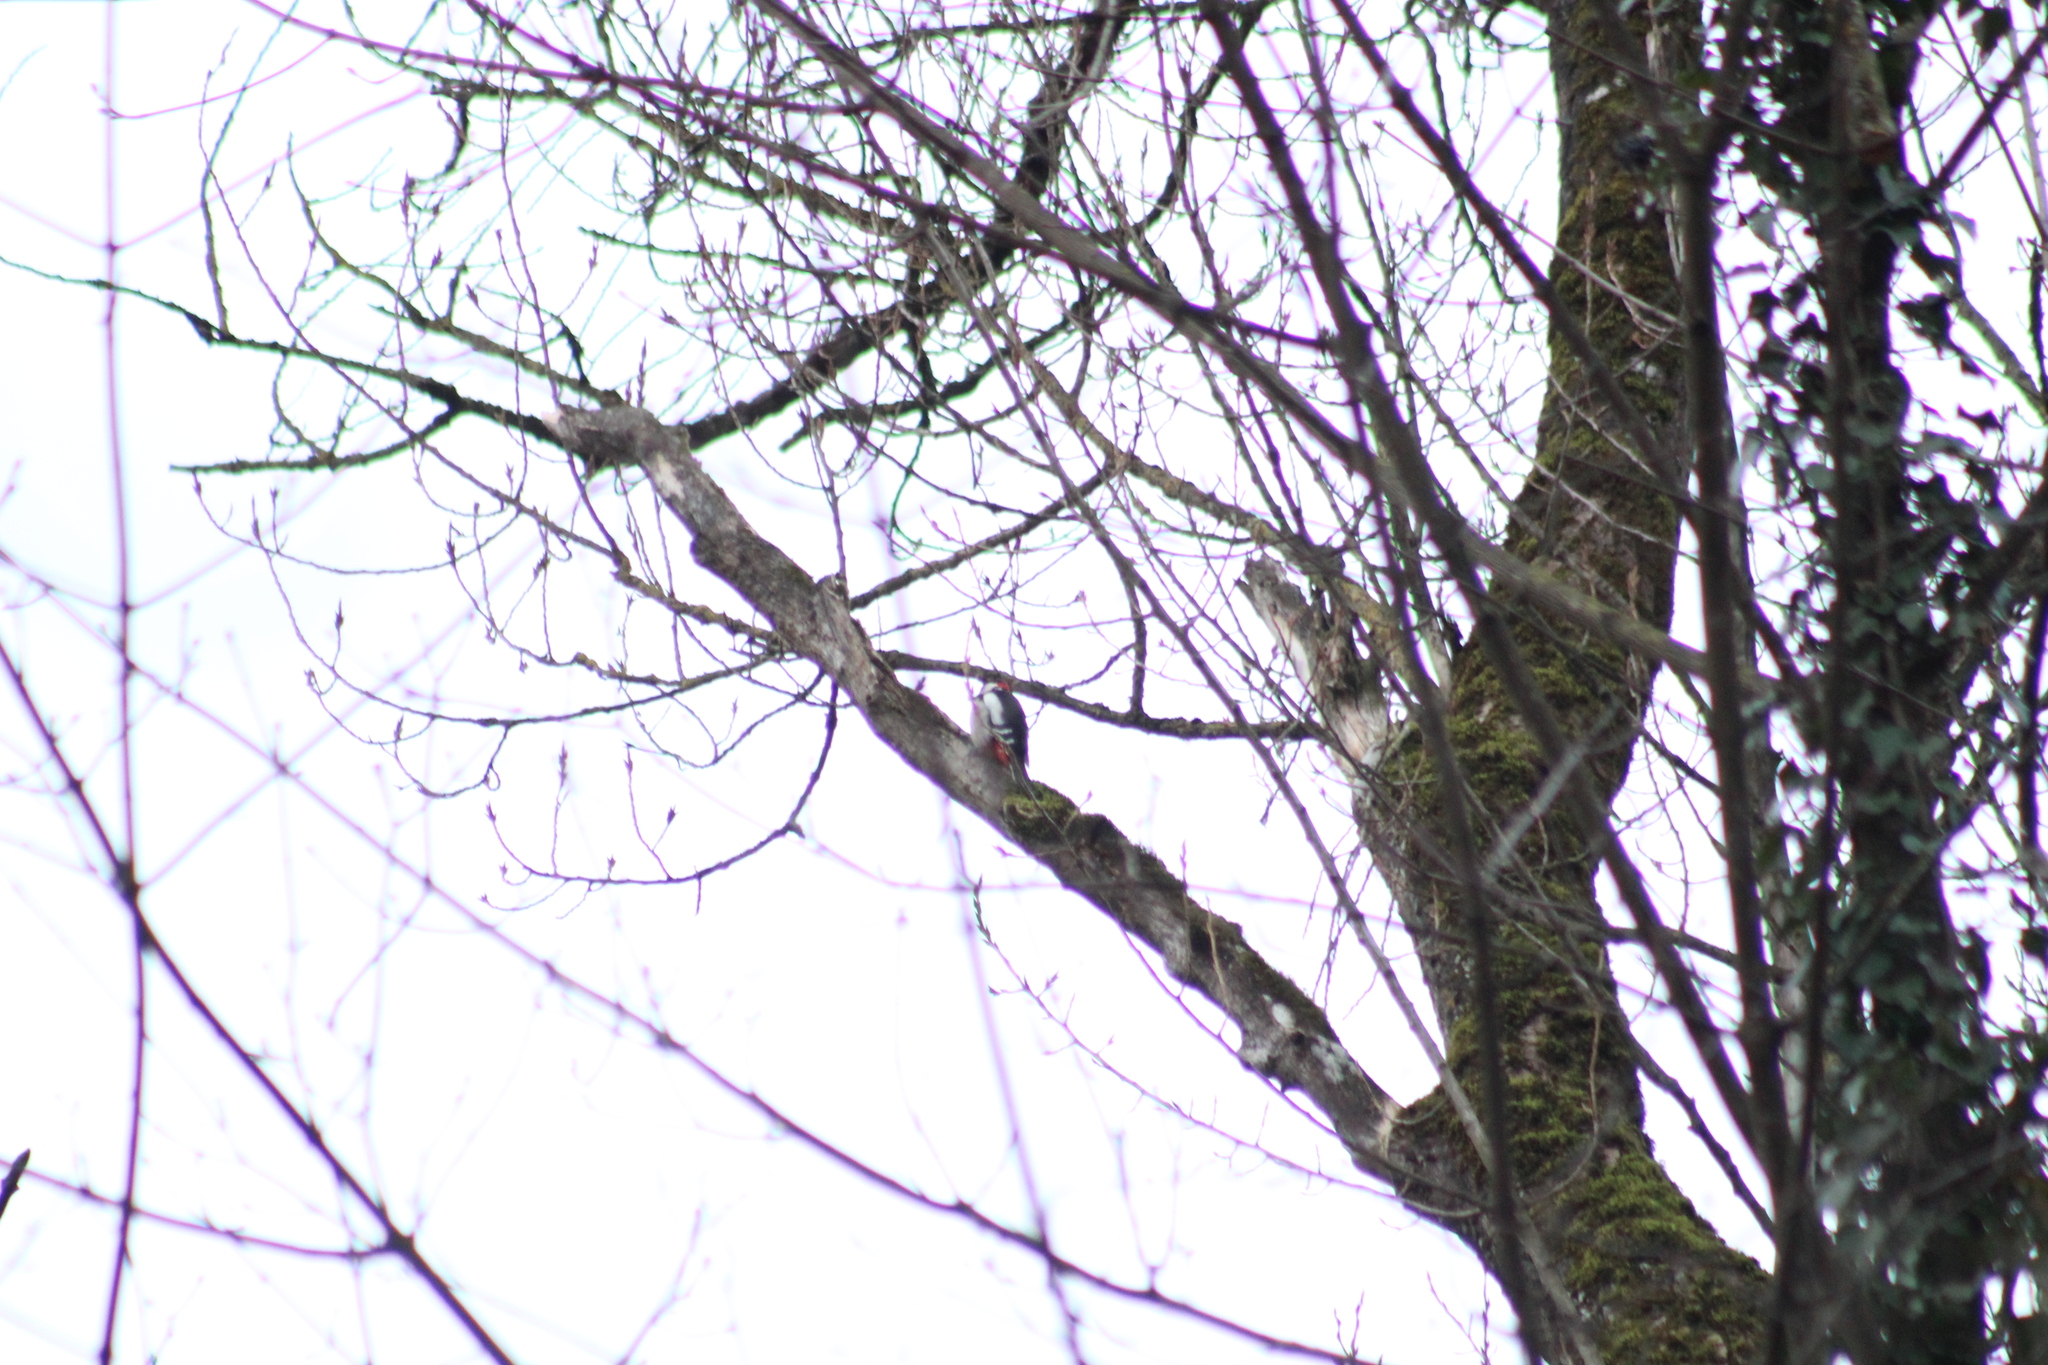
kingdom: Animalia
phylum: Chordata
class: Aves
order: Piciformes
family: Picidae
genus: Dendrocopos
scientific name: Dendrocopos major
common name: Great spotted woodpecker
